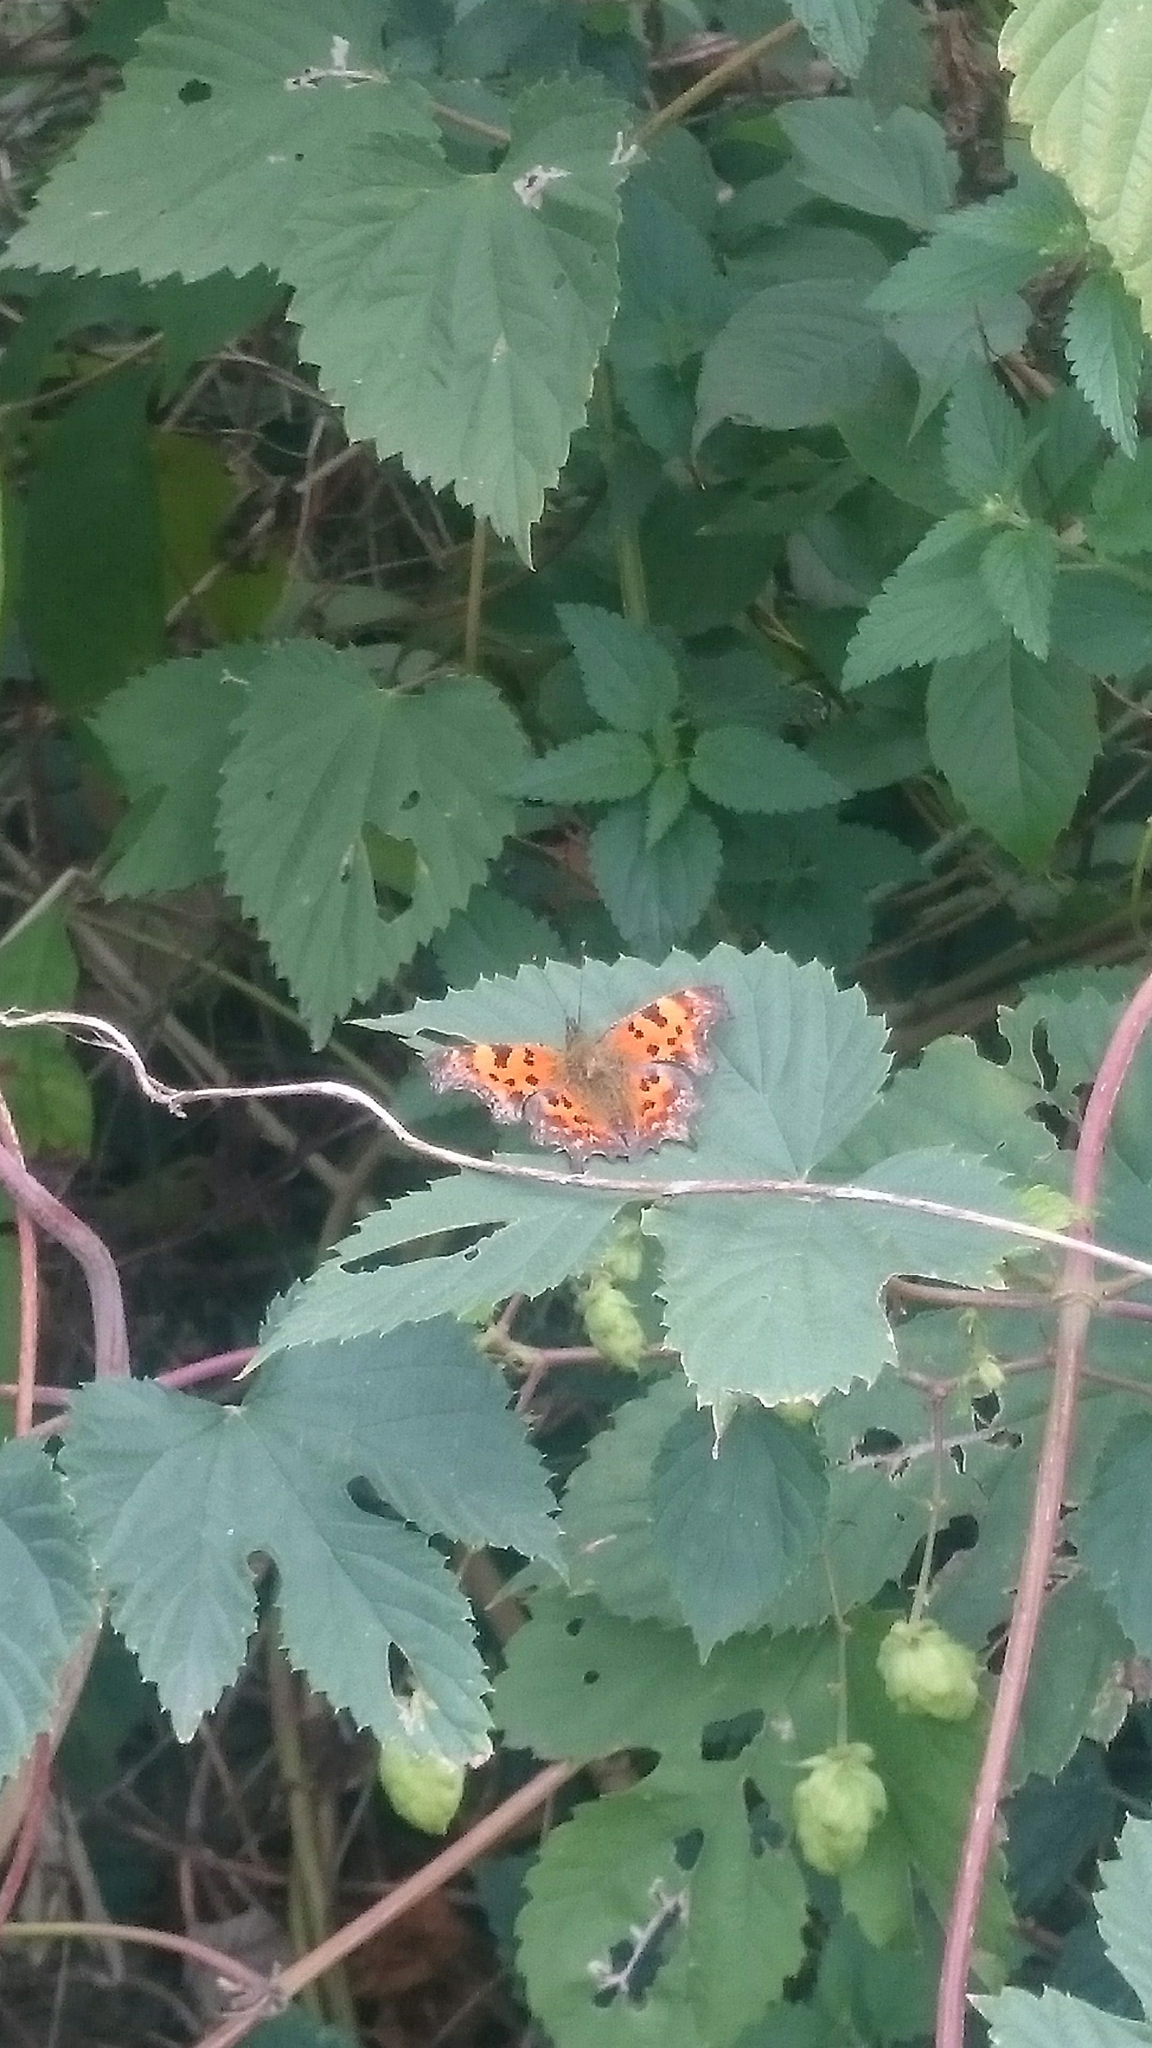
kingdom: Animalia
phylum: Arthropoda
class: Insecta
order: Lepidoptera
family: Nymphalidae
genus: Polygonia
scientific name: Polygonia c-album
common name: Comma
